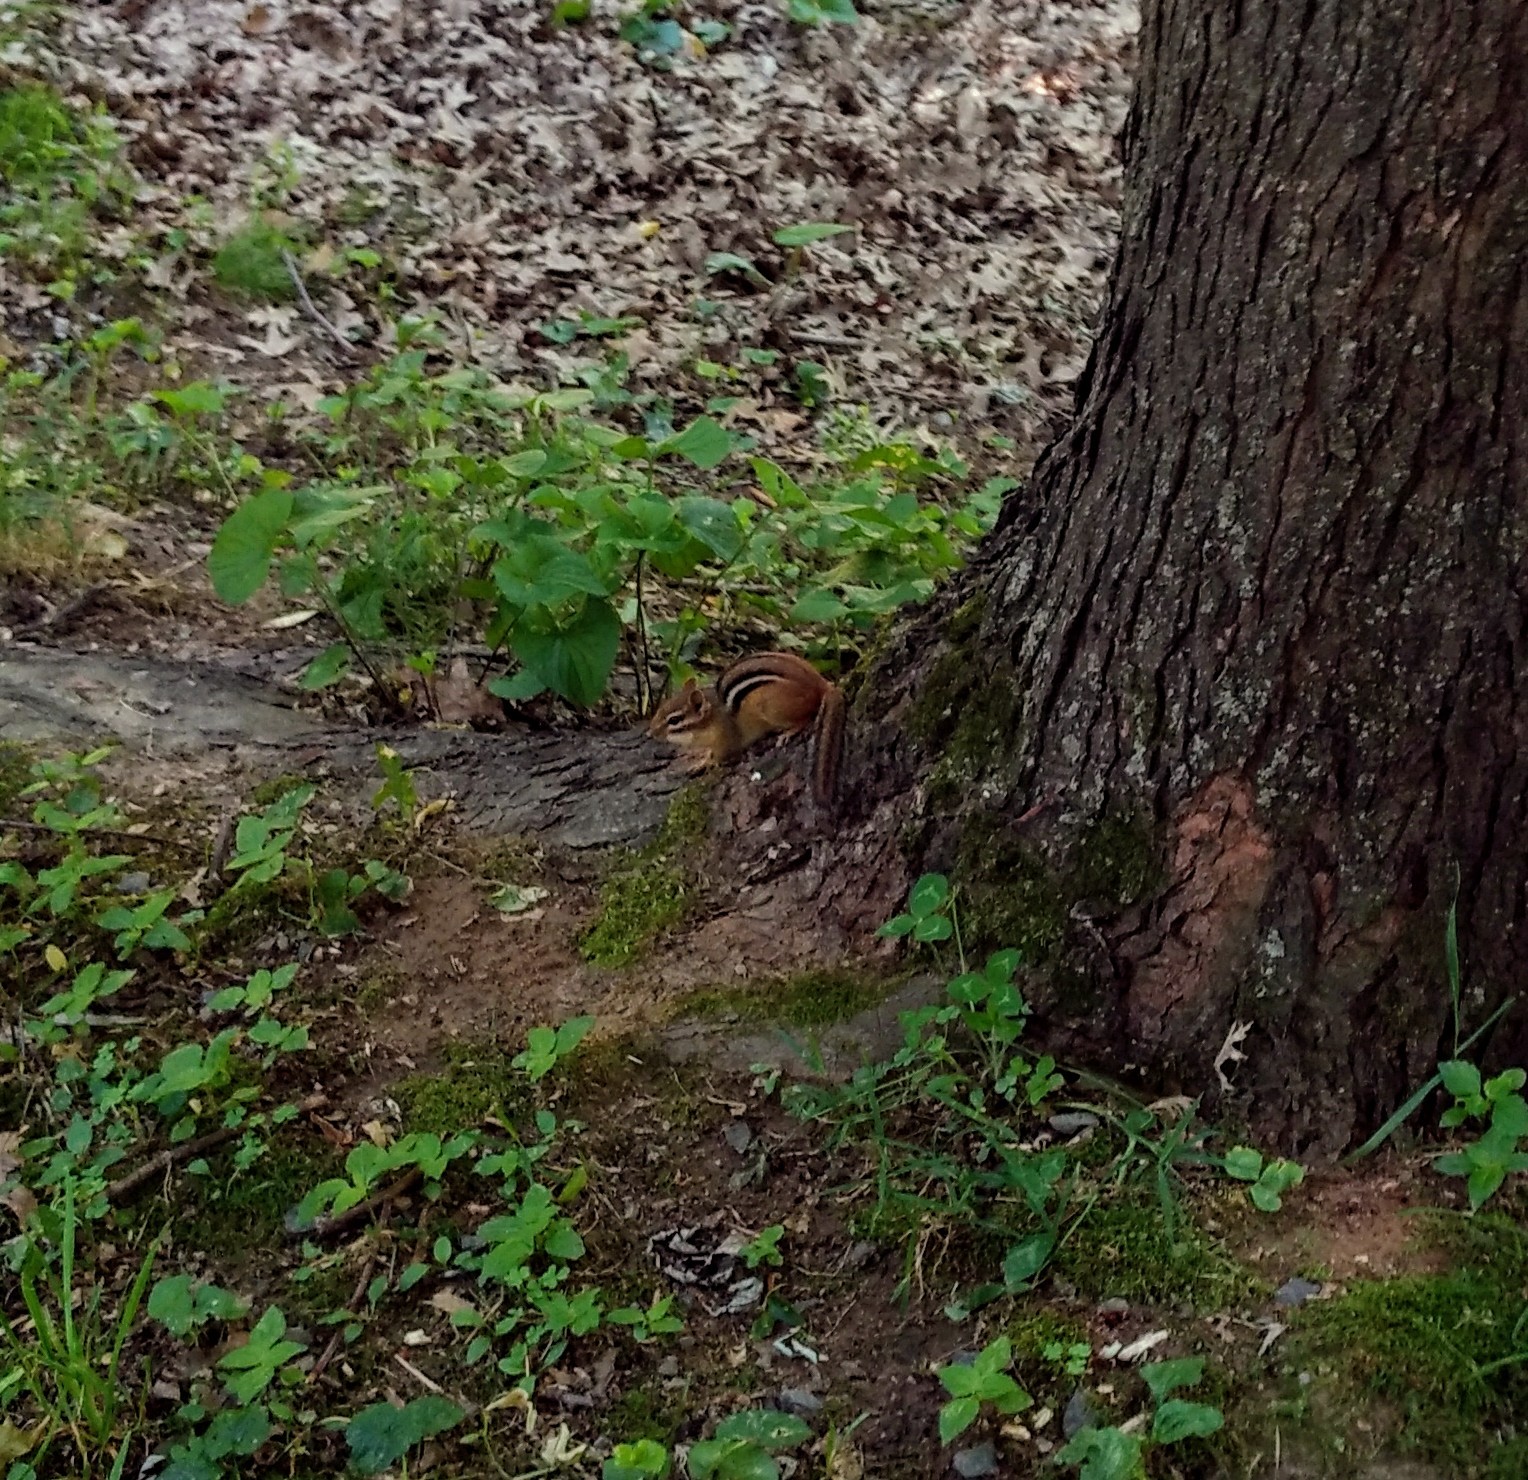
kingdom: Animalia
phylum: Chordata
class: Mammalia
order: Rodentia
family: Sciuridae
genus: Tamias
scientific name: Tamias striatus
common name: Eastern chipmunk
